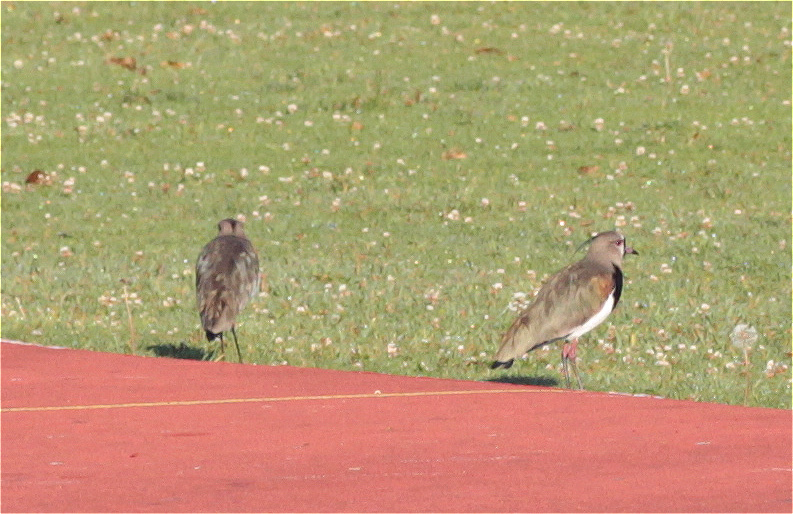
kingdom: Animalia
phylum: Chordata
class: Aves
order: Charadriiformes
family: Charadriidae
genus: Vanellus
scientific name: Vanellus chilensis
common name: Southern lapwing
